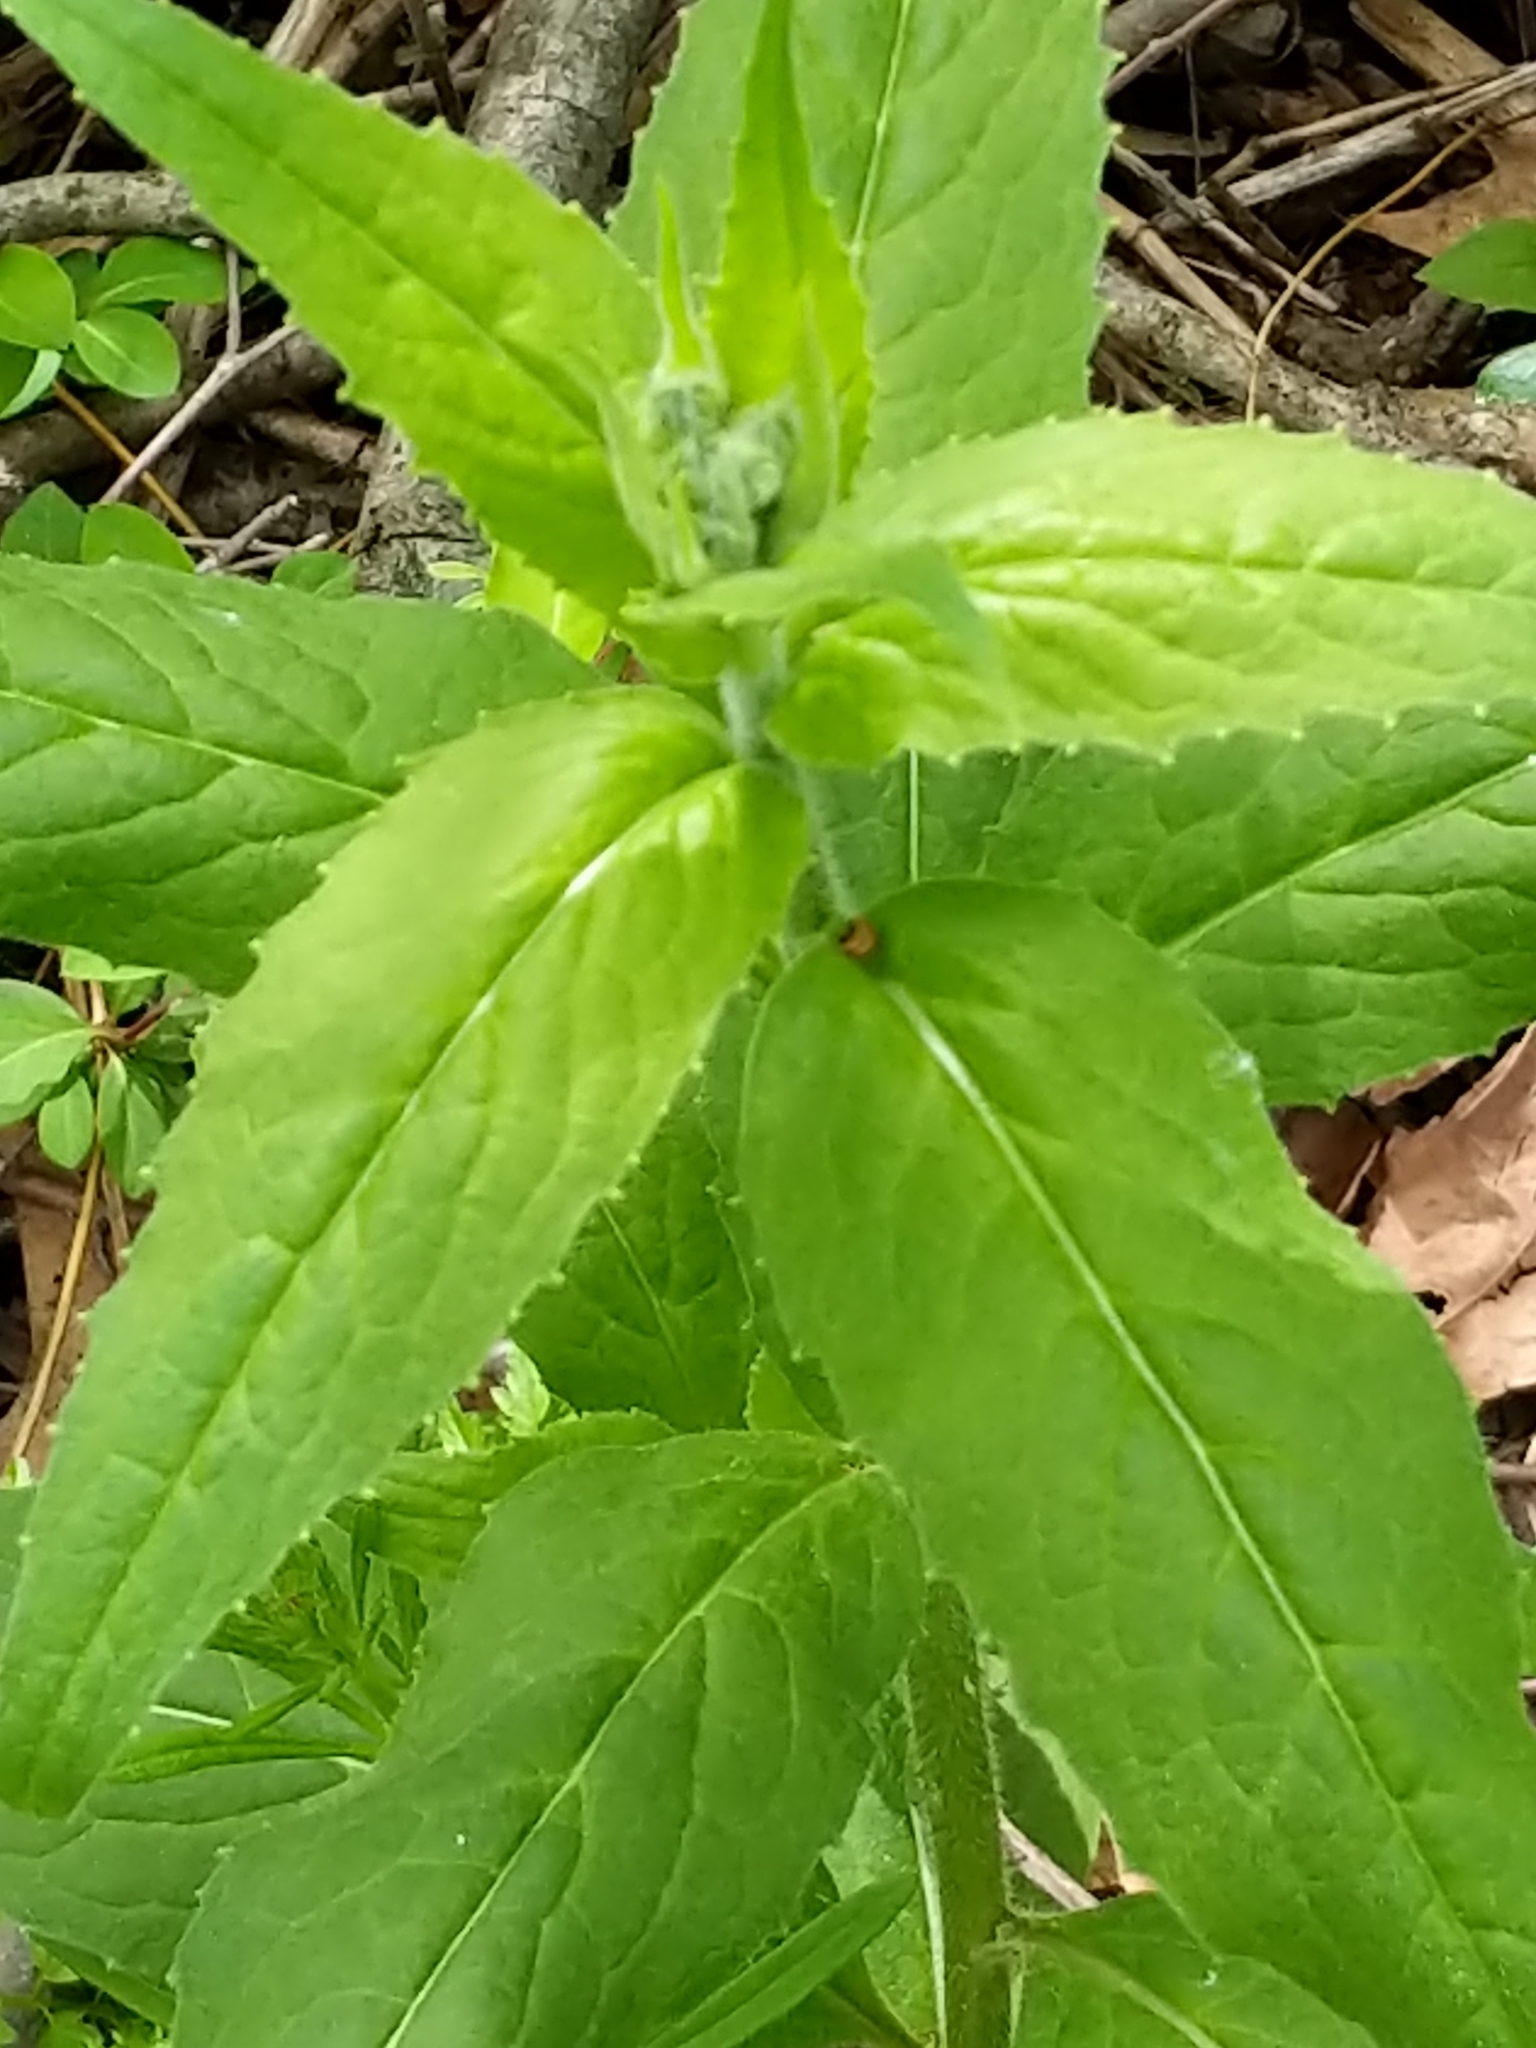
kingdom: Plantae
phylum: Tracheophyta
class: Magnoliopsida
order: Brassicales
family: Brassicaceae
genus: Hesperis
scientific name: Hesperis matronalis
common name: Dame's-violet
